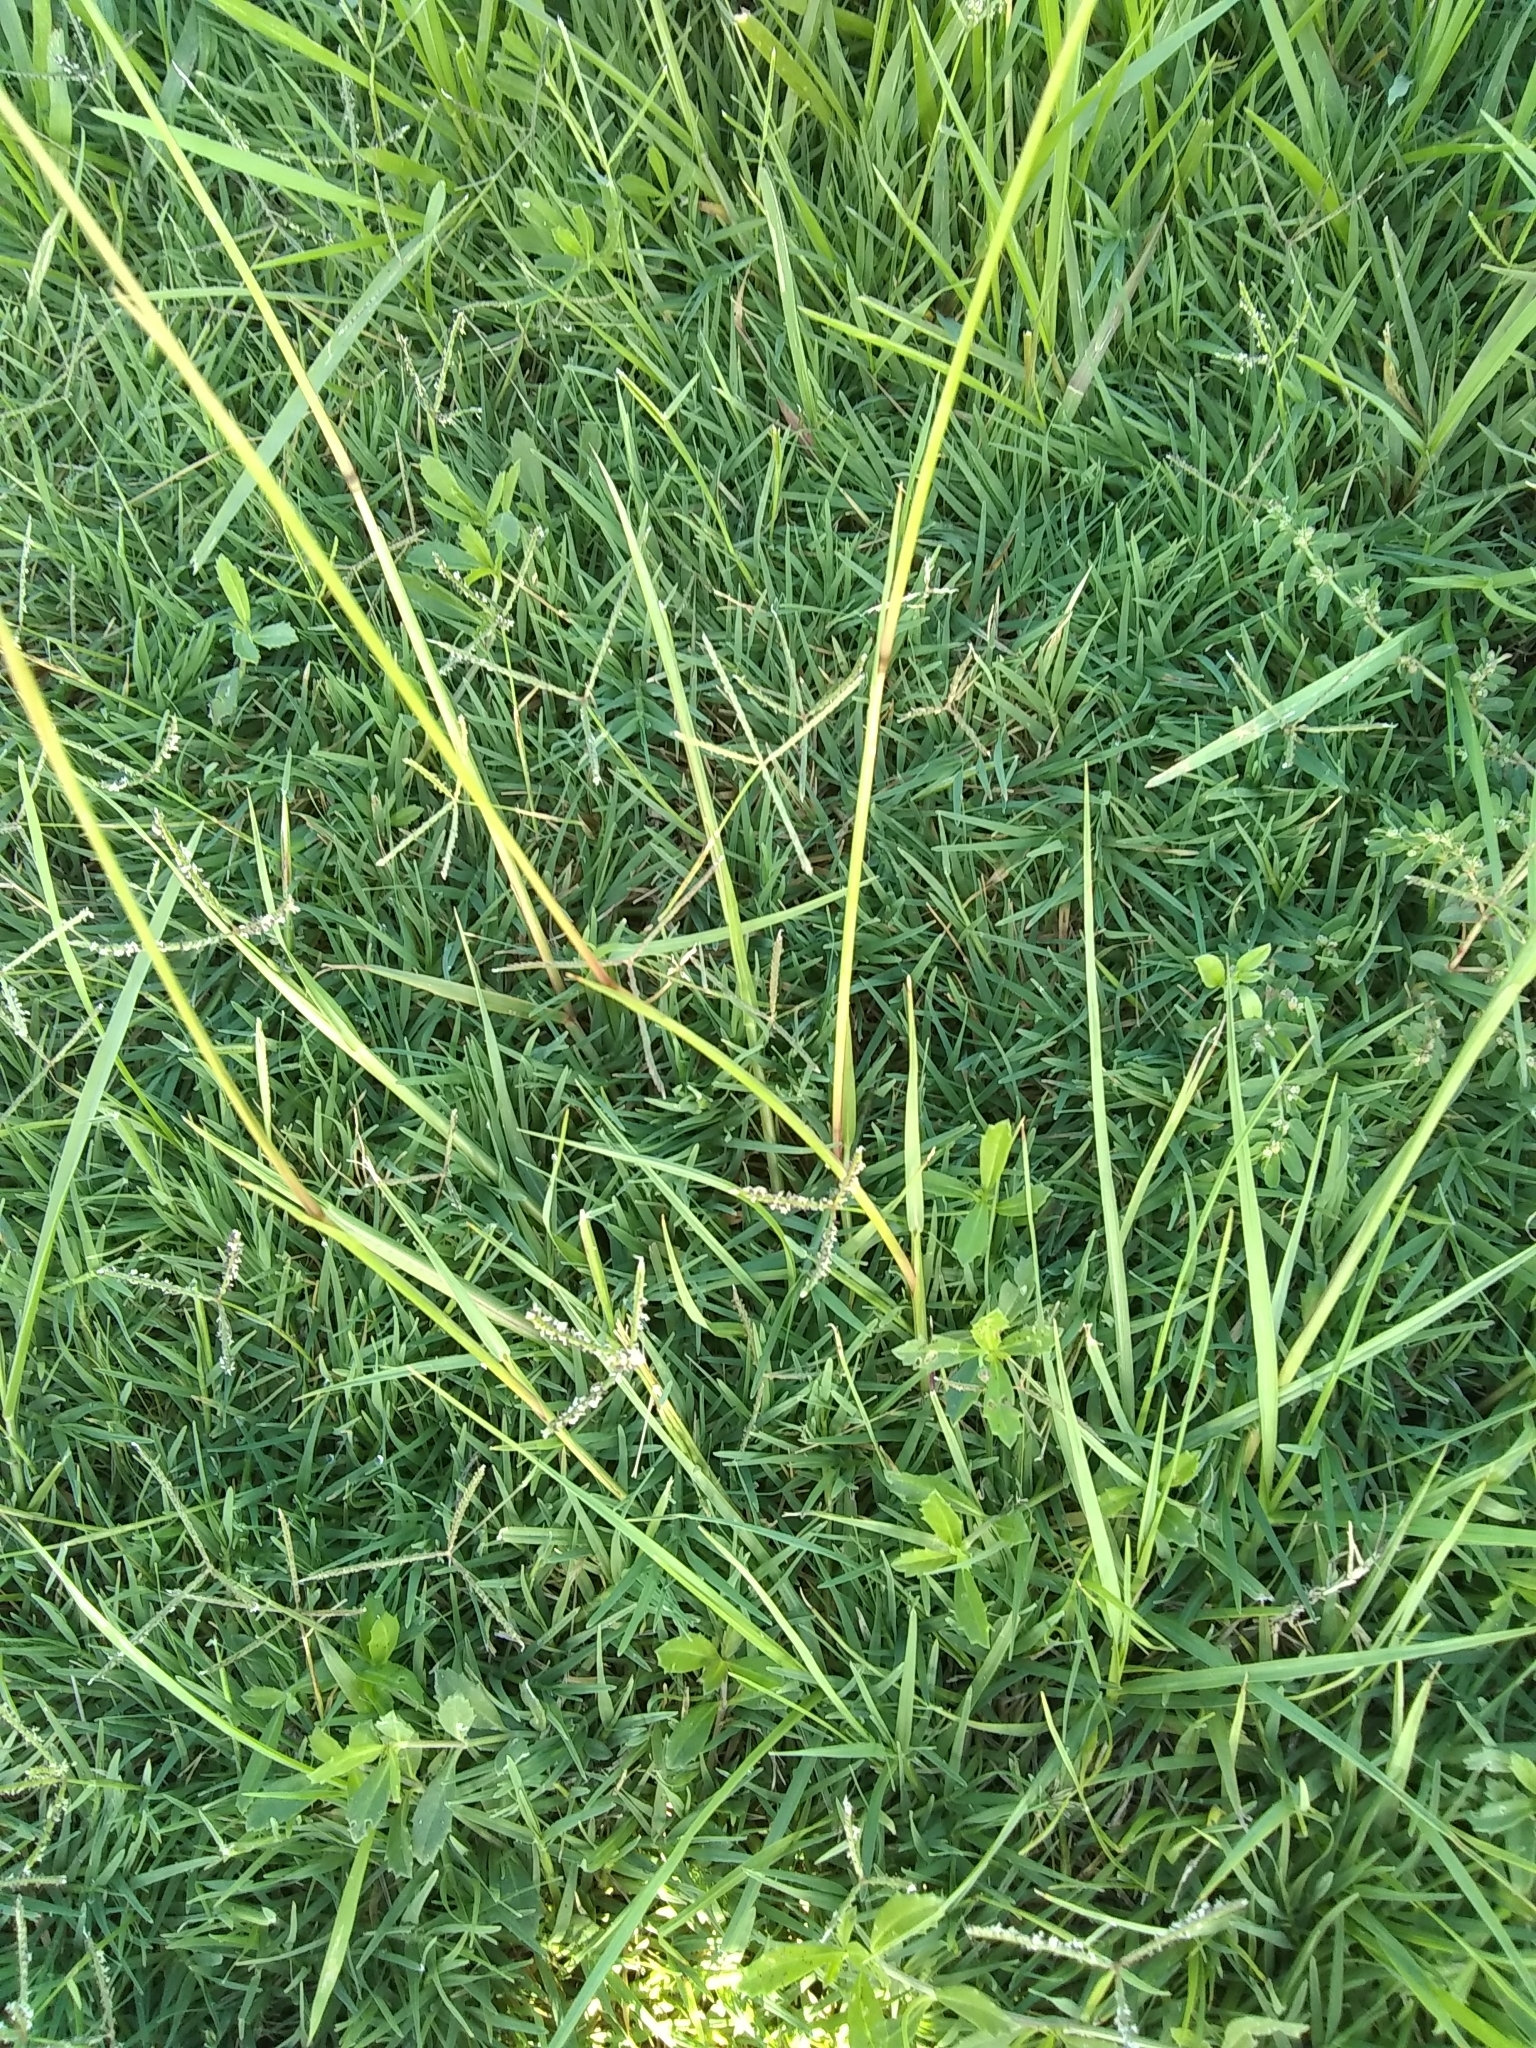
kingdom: Plantae
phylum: Tracheophyta
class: Liliopsida
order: Poales
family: Poaceae
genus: Paspalum
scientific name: Paspalum notatum
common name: Bahiagrass
